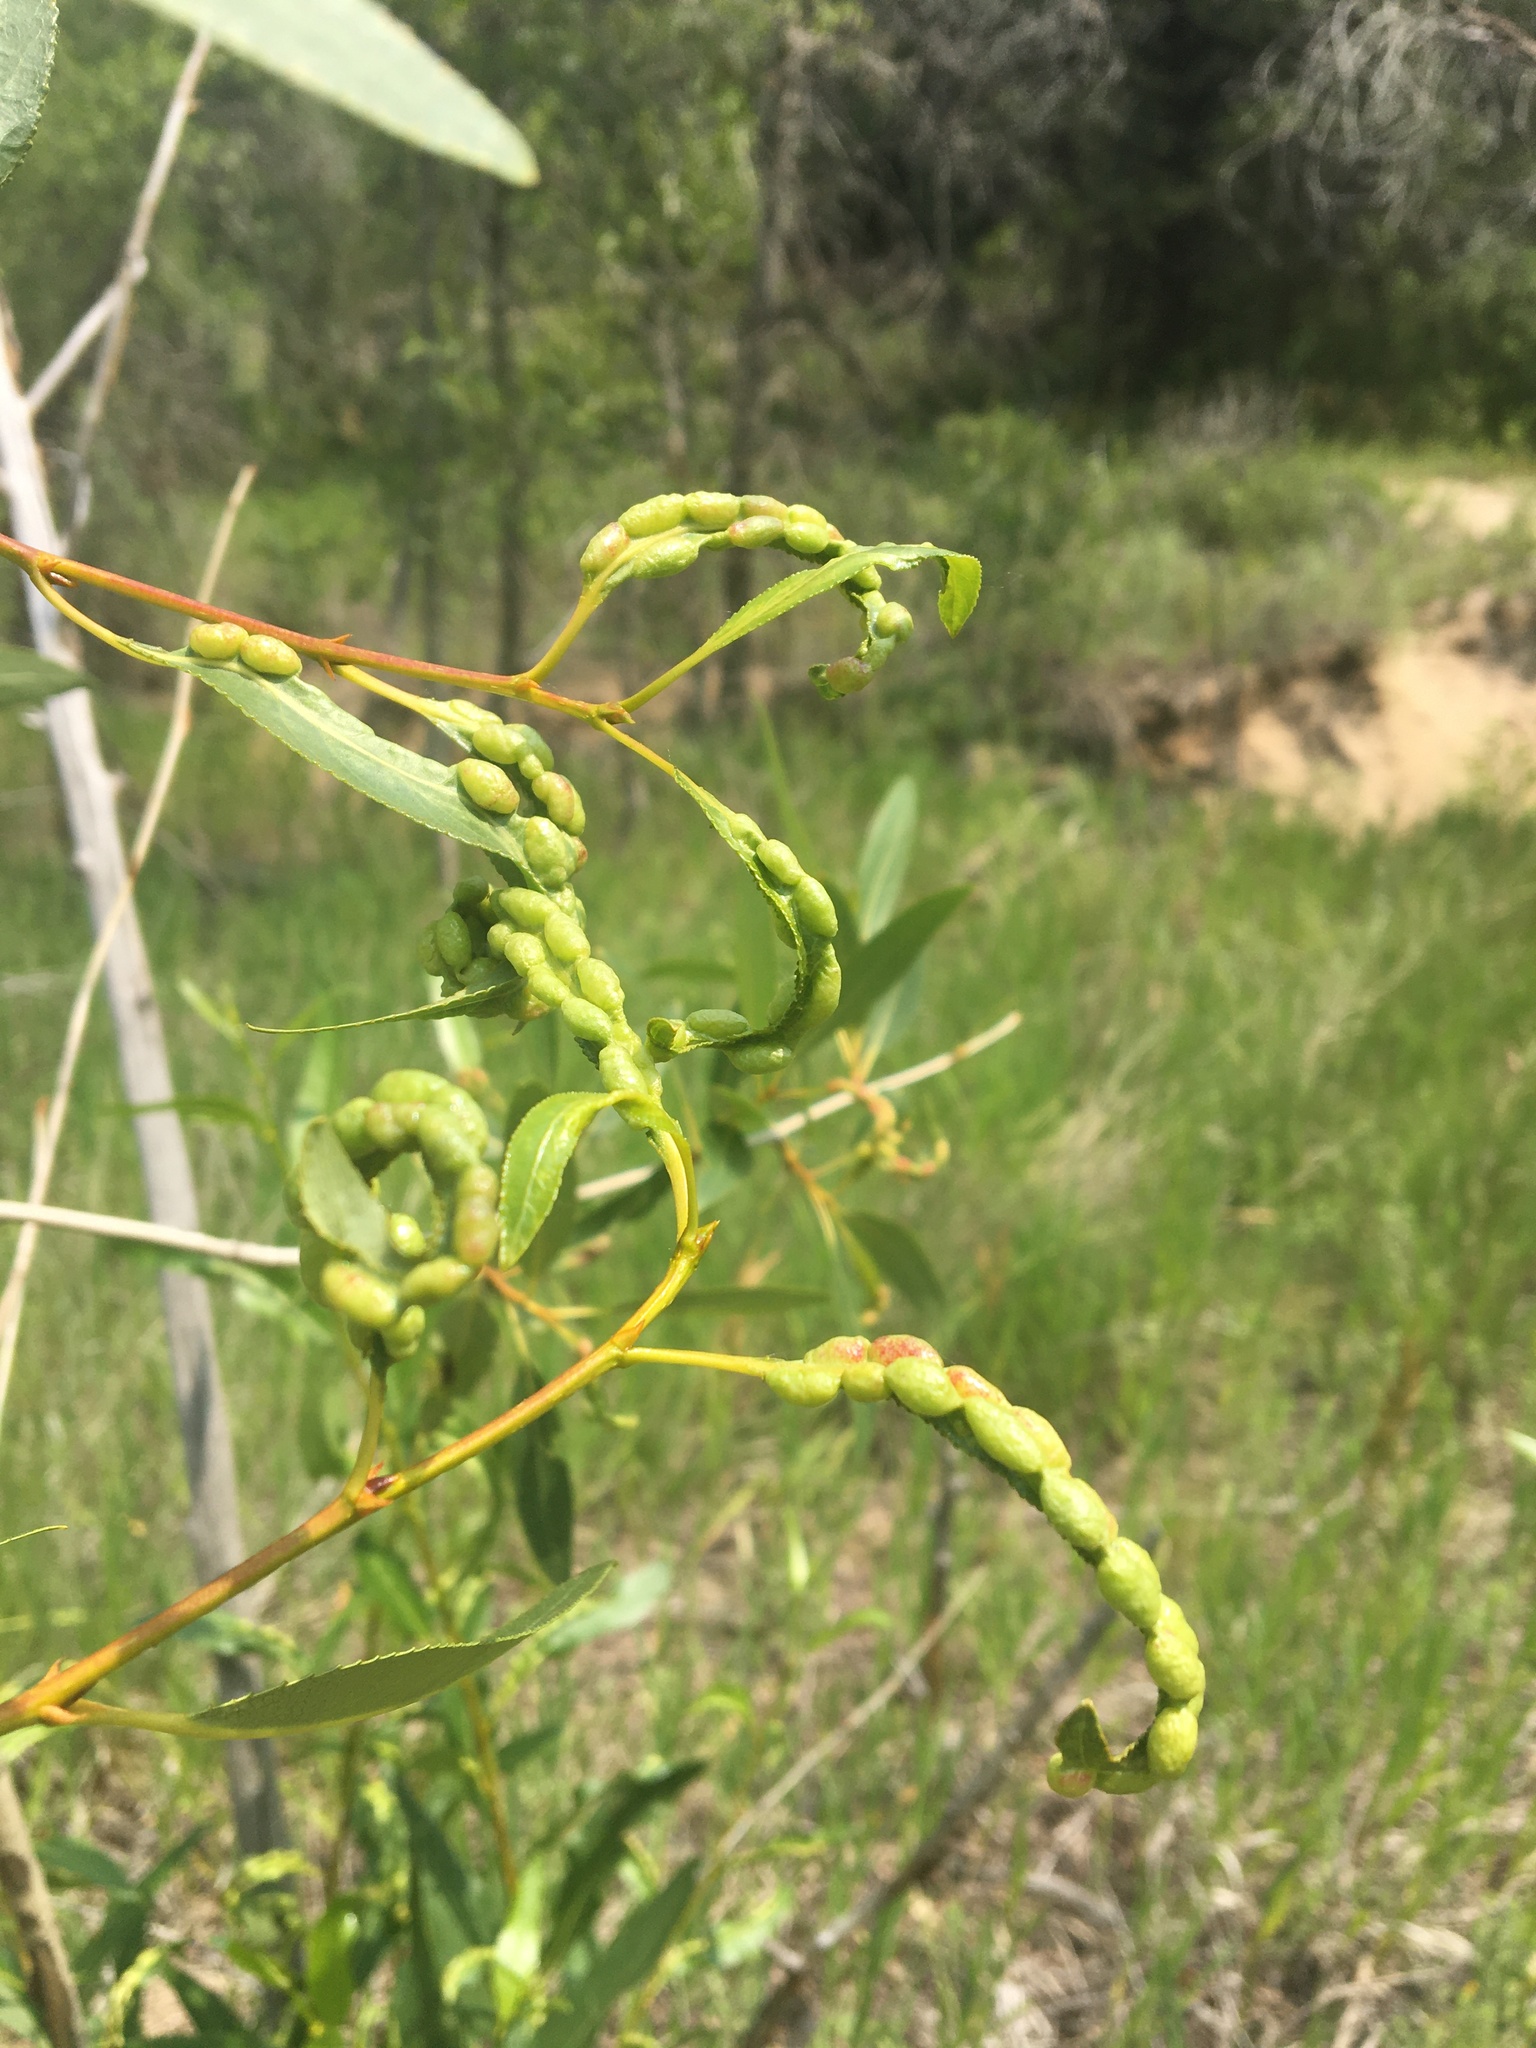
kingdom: Plantae
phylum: Tracheophyta
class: Magnoliopsida
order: Malpighiales
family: Salicaceae
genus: Populus
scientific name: Populus angustifolia
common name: Willow cottonwood
